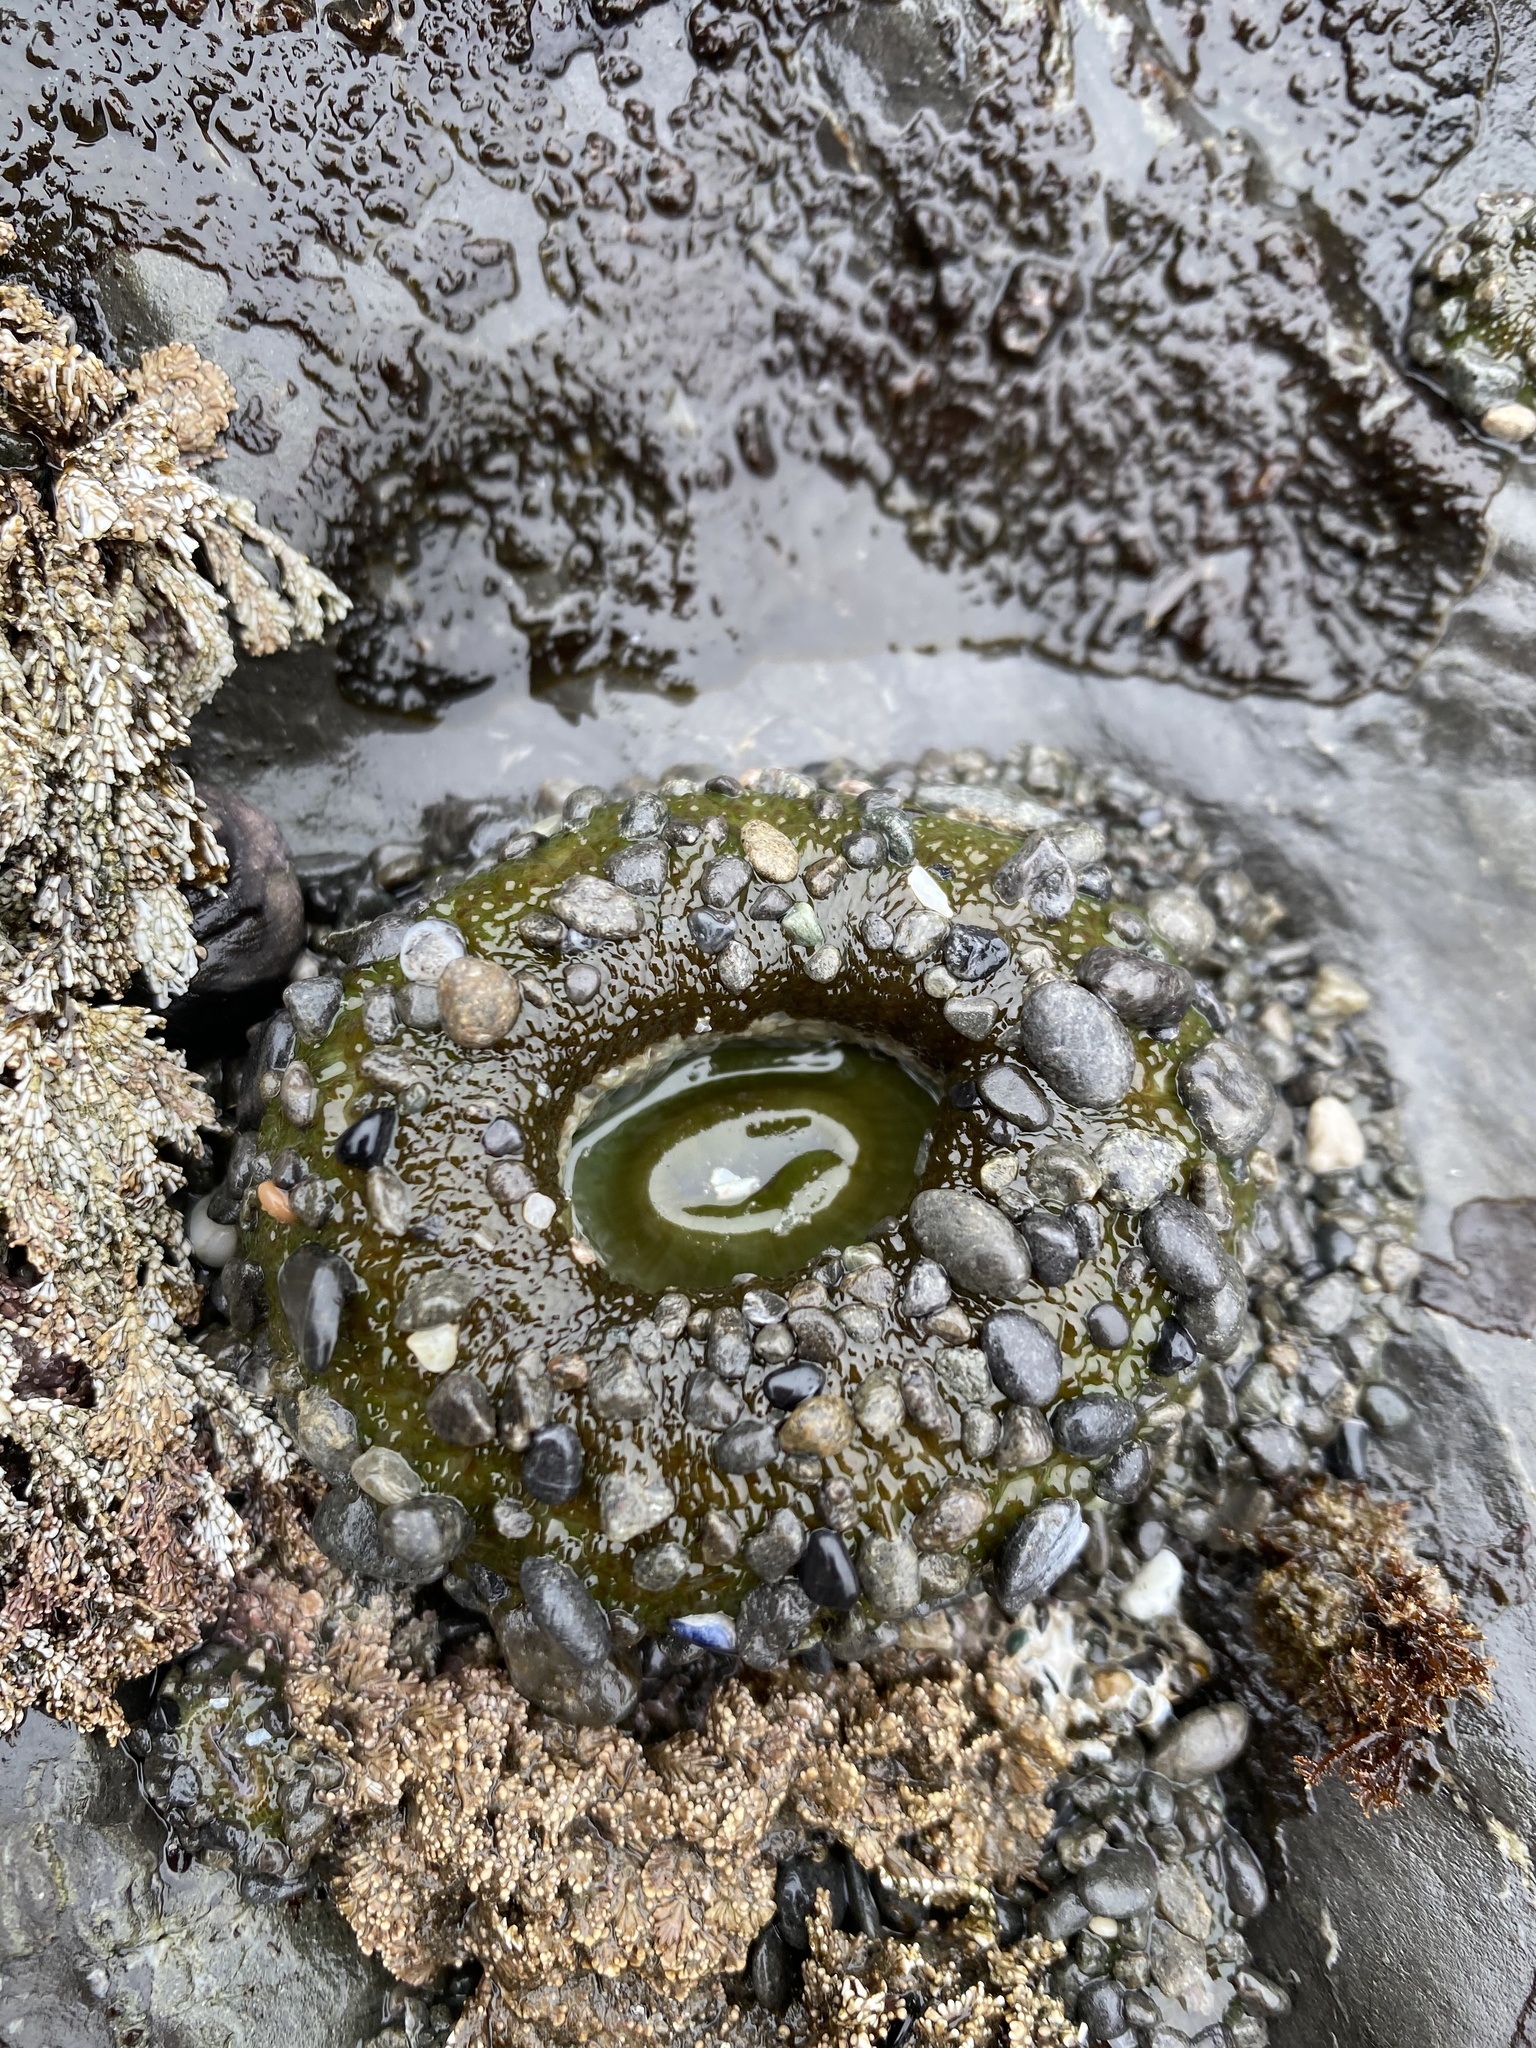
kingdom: Animalia
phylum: Cnidaria
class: Anthozoa
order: Actiniaria
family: Actiniidae
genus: Anthopleura
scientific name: Anthopleura xanthogrammica
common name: Giant green anemone
